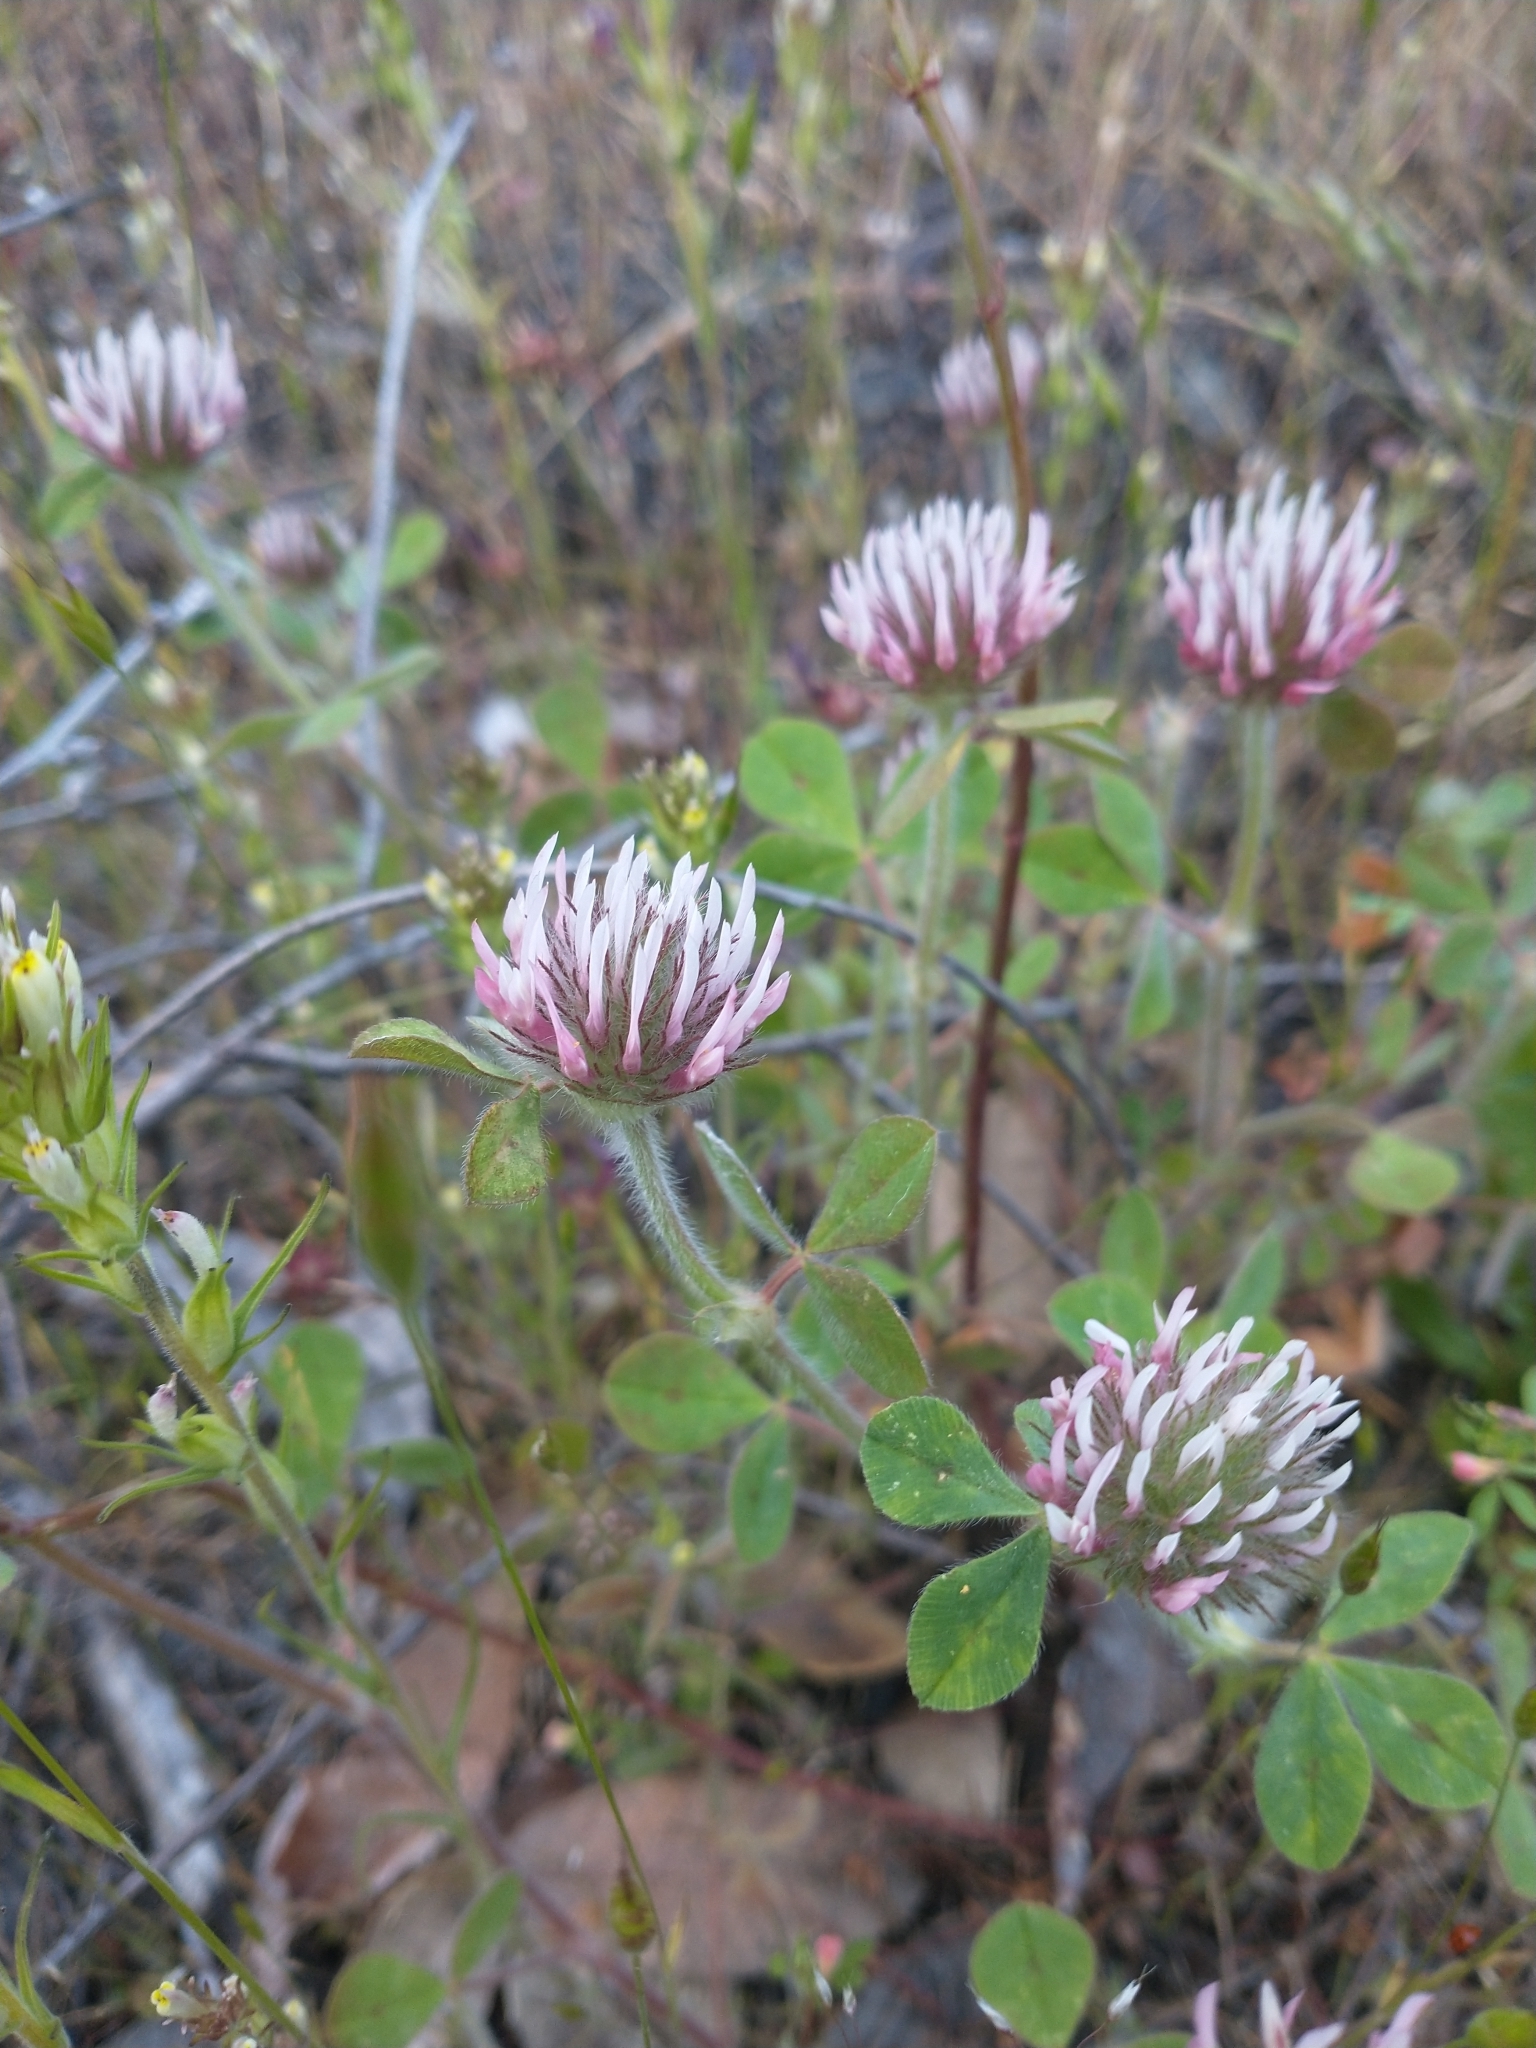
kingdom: Plantae
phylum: Tracheophyta
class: Magnoliopsida
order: Fabales
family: Fabaceae
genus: Trifolium
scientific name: Trifolium hirtum
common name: Rose clover
